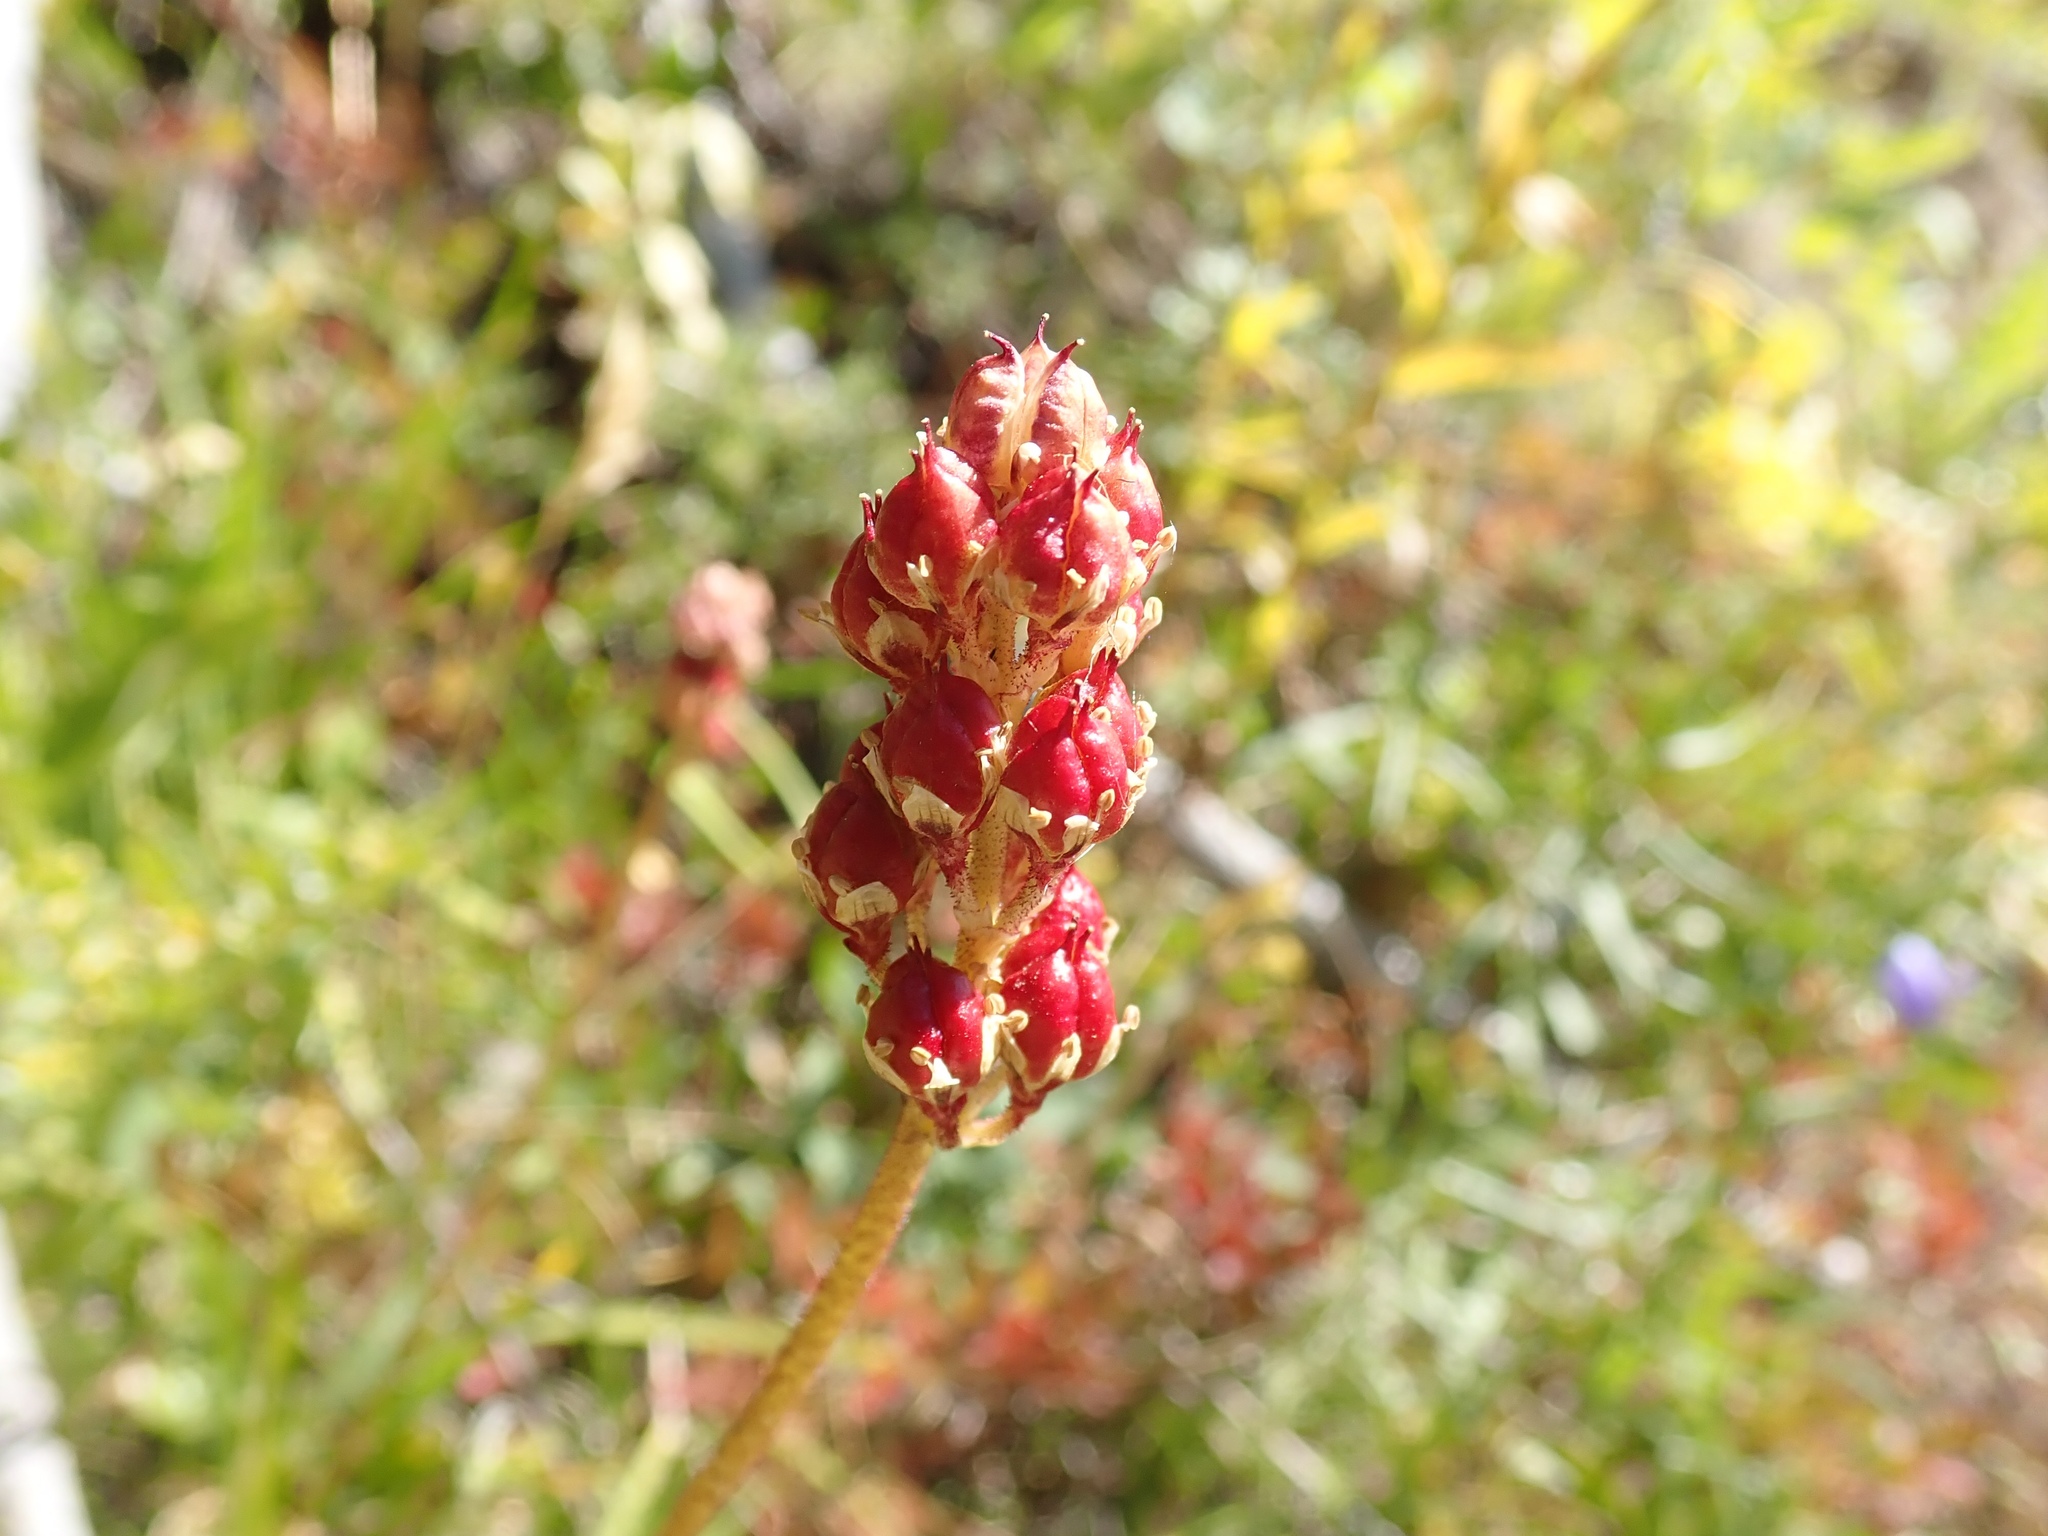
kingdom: Plantae
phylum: Tracheophyta
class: Liliopsida
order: Alismatales
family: Tofieldiaceae
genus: Triantha
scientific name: Triantha occidentalis
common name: Western false asphodel
